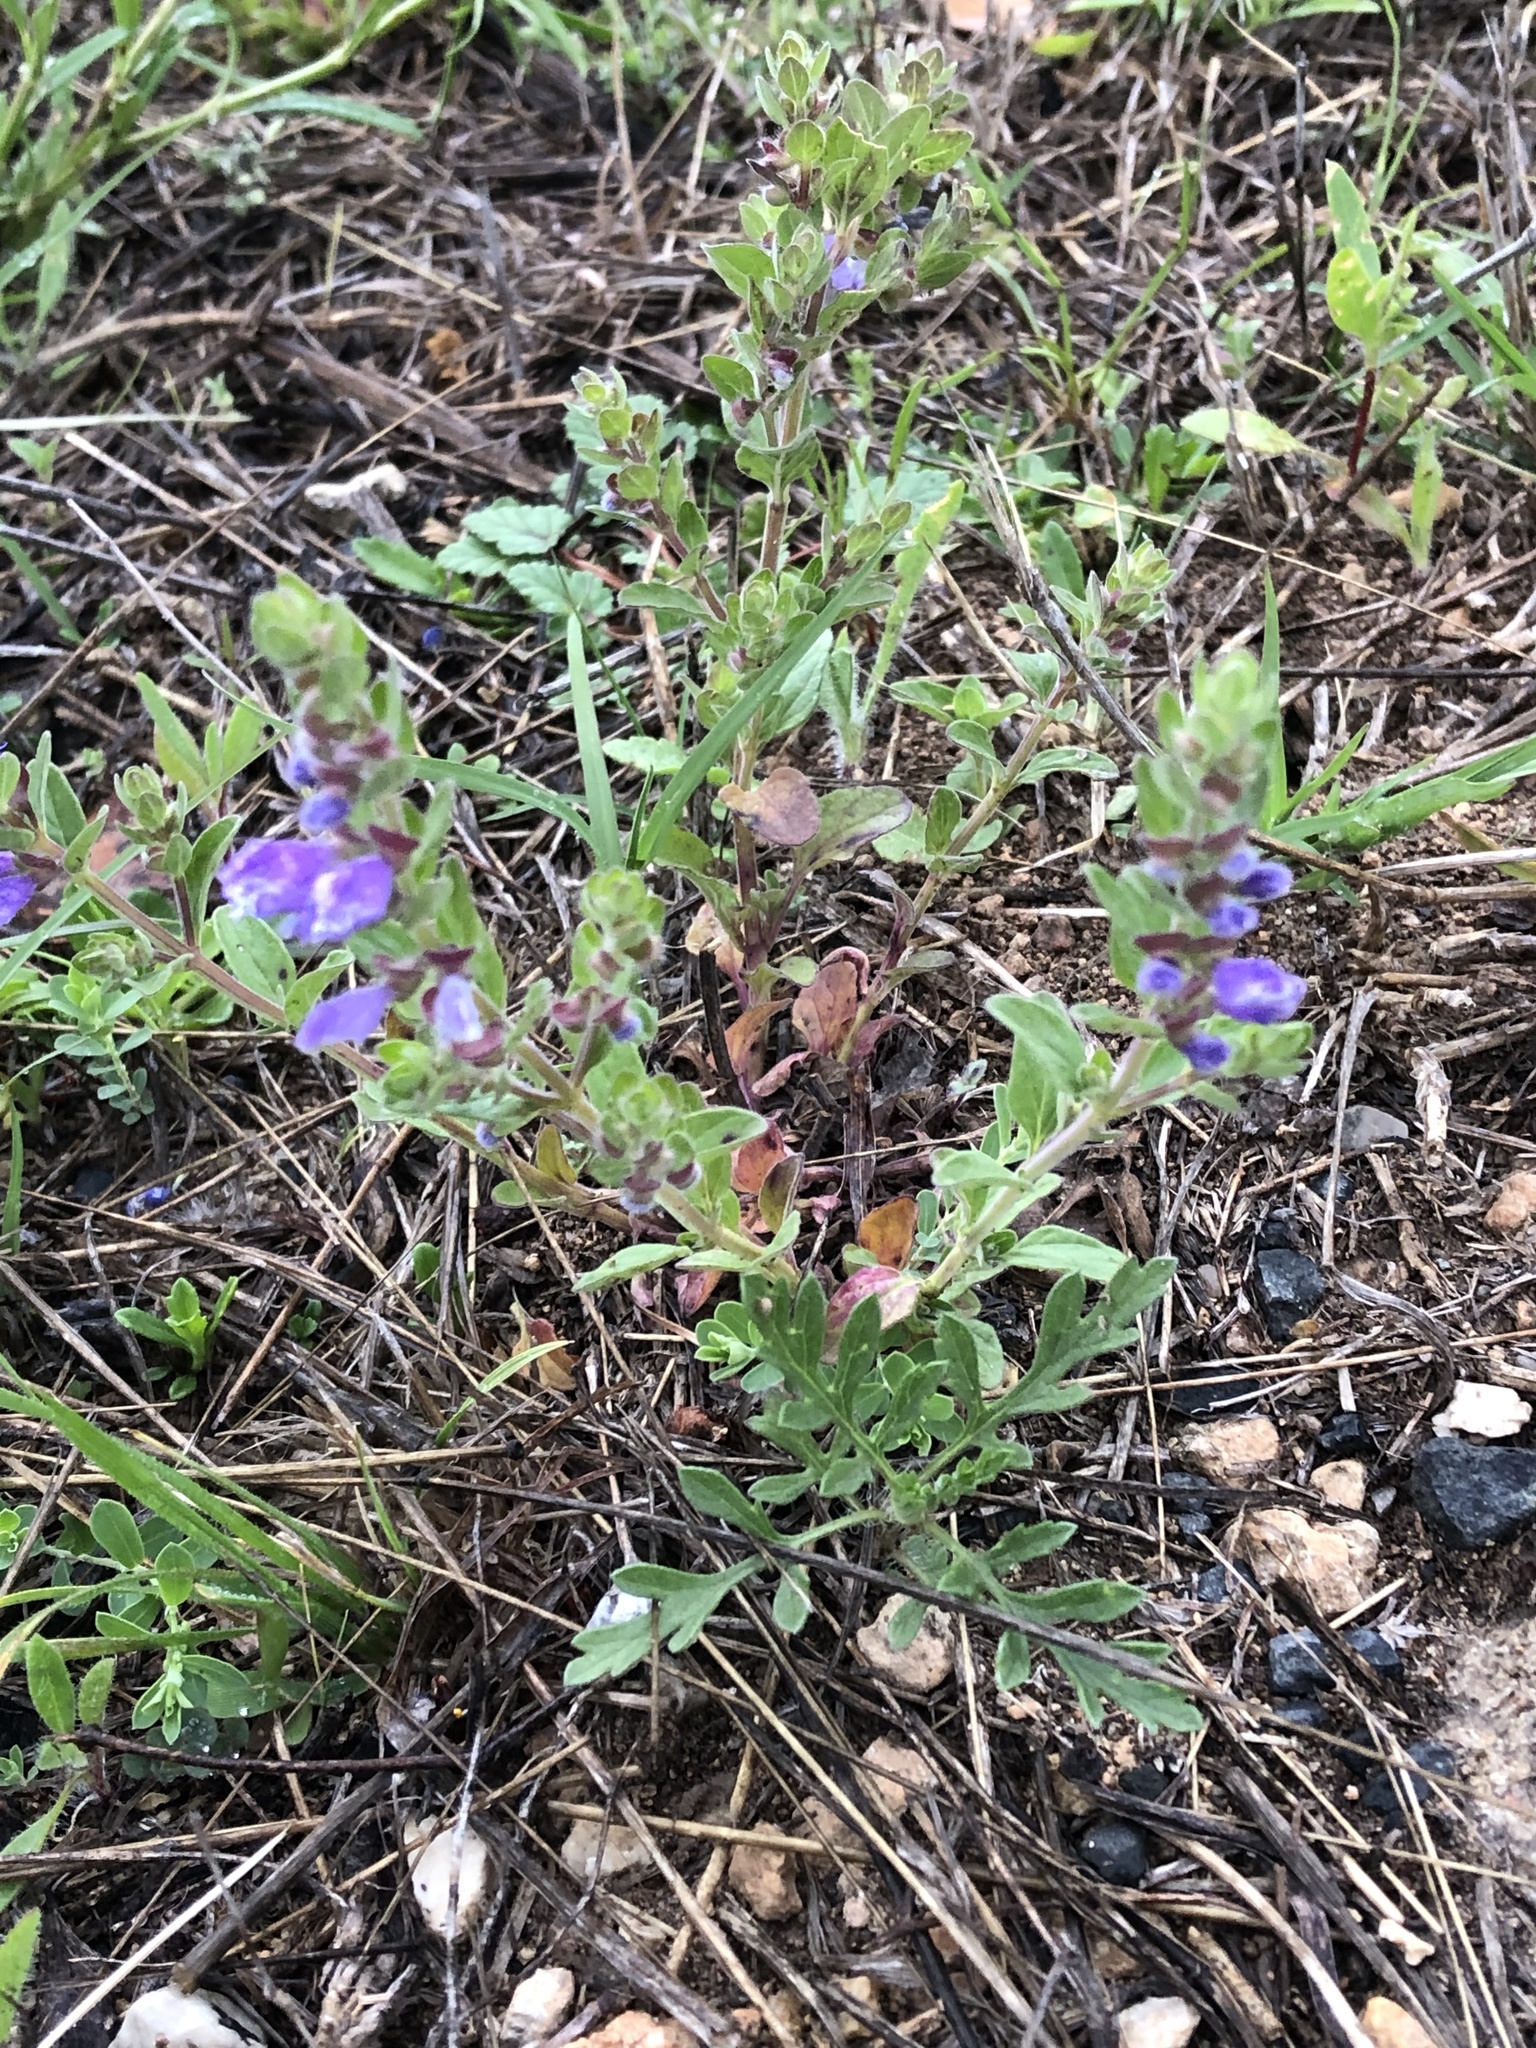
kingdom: Plantae
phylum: Tracheophyta
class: Magnoliopsida
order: Lamiales
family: Lamiaceae
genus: Scutellaria
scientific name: Scutellaria drummondii
